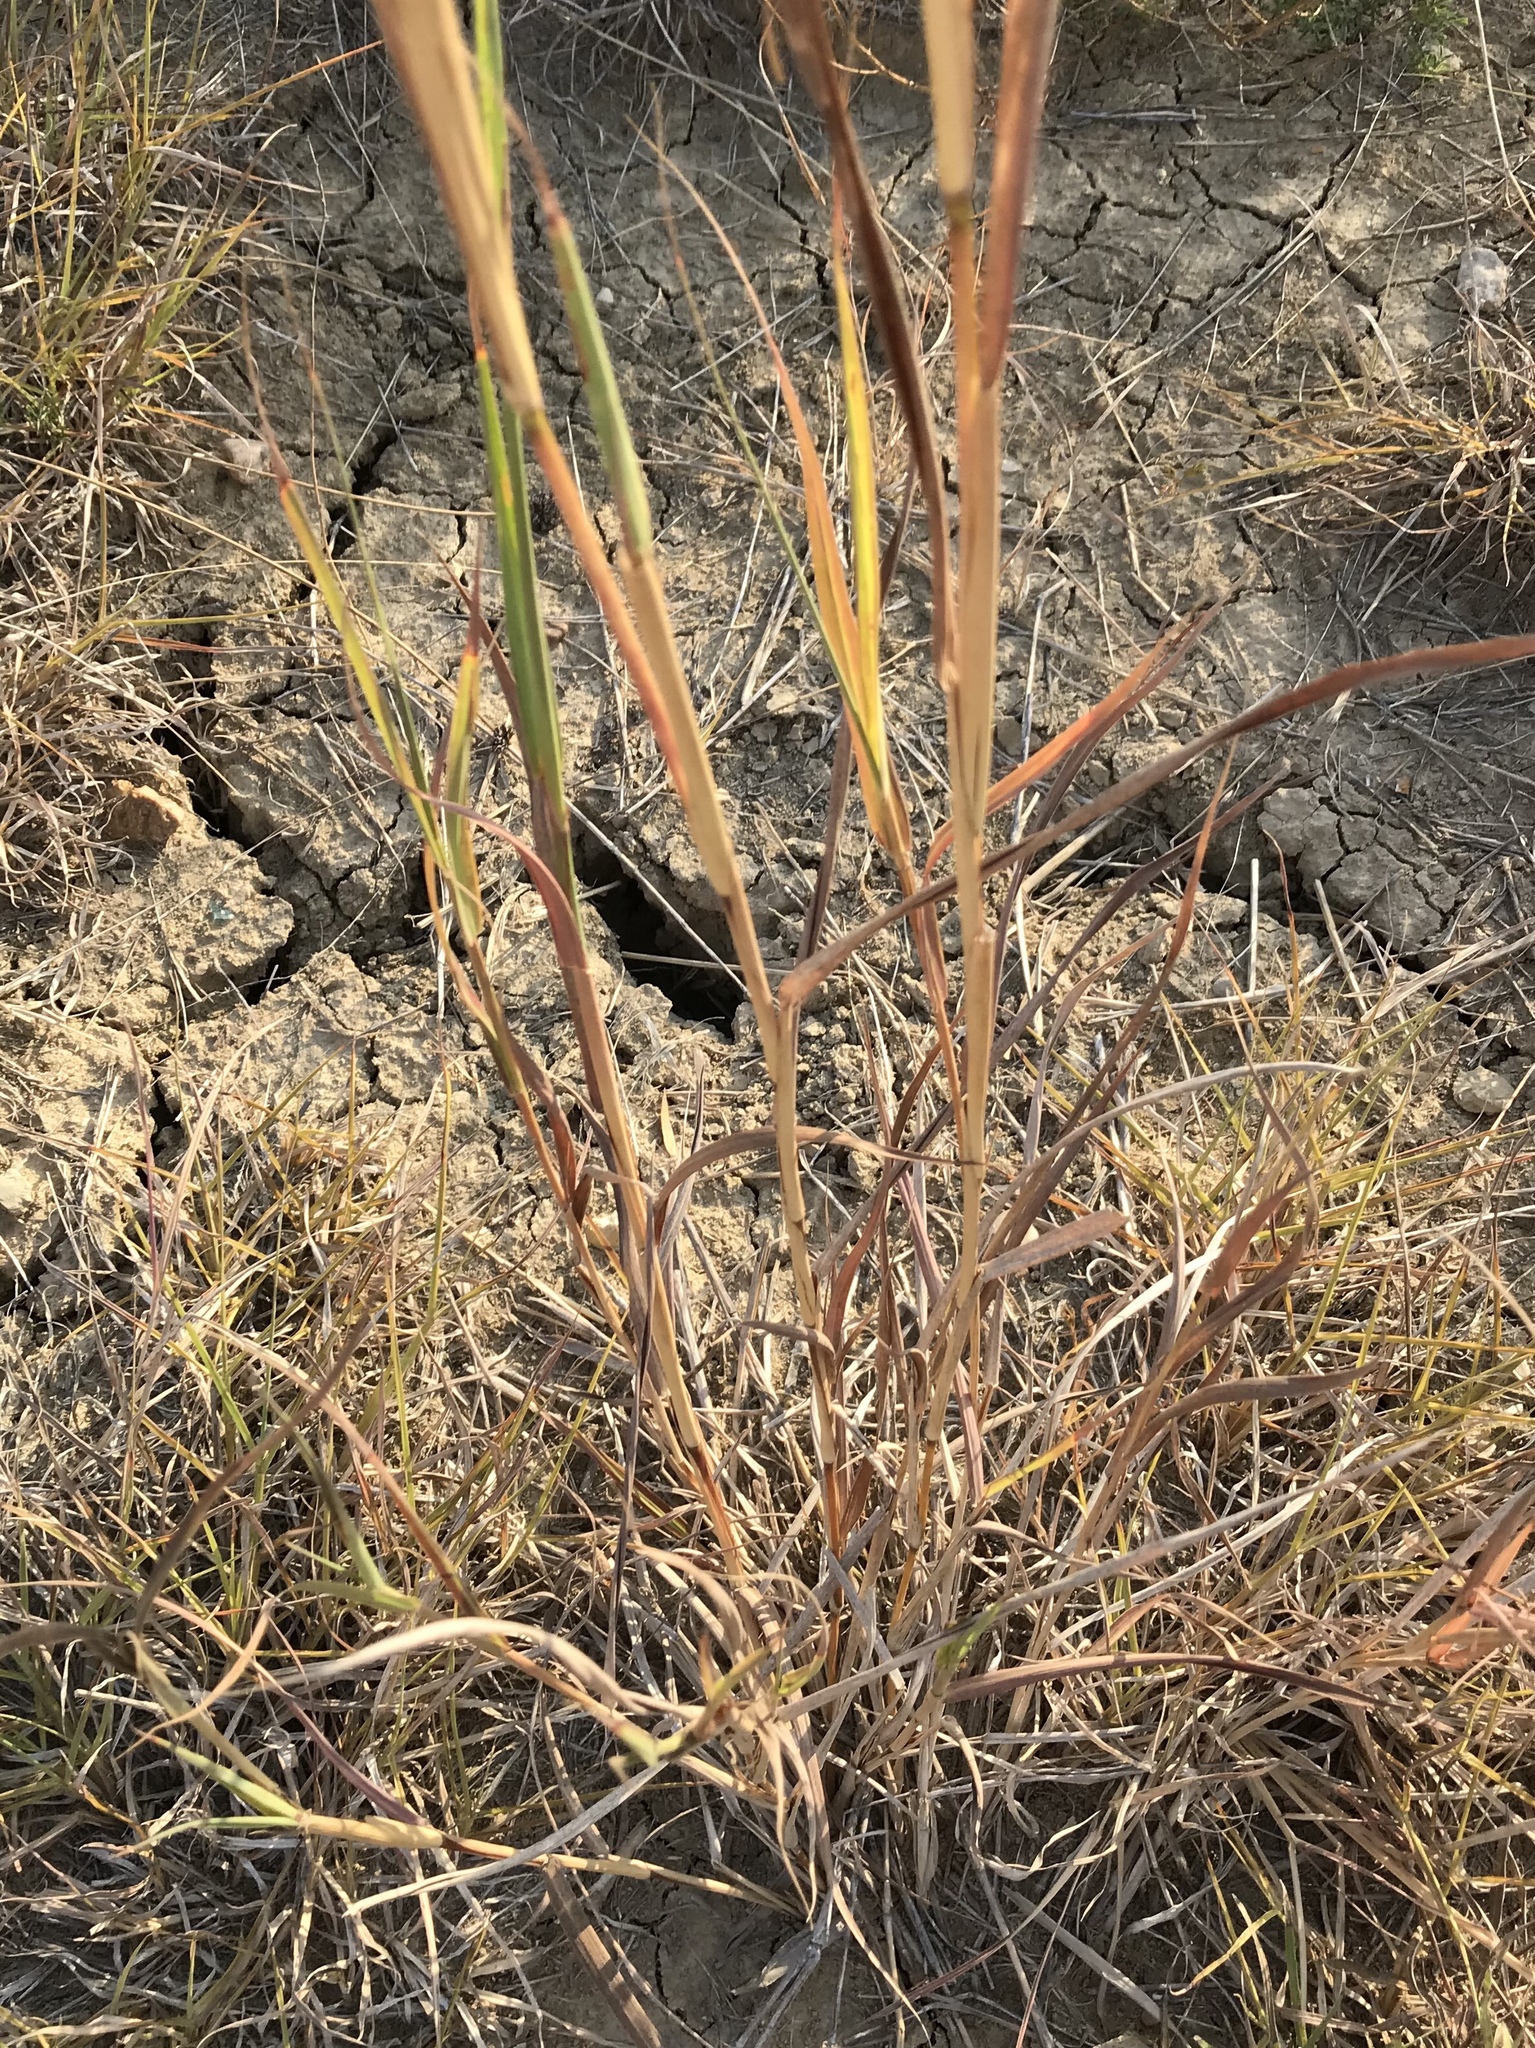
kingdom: Plantae
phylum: Tracheophyta
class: Liliopsida
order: Poales
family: Poaceae
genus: Bothriochloa
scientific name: Bothriochloa torreyana
